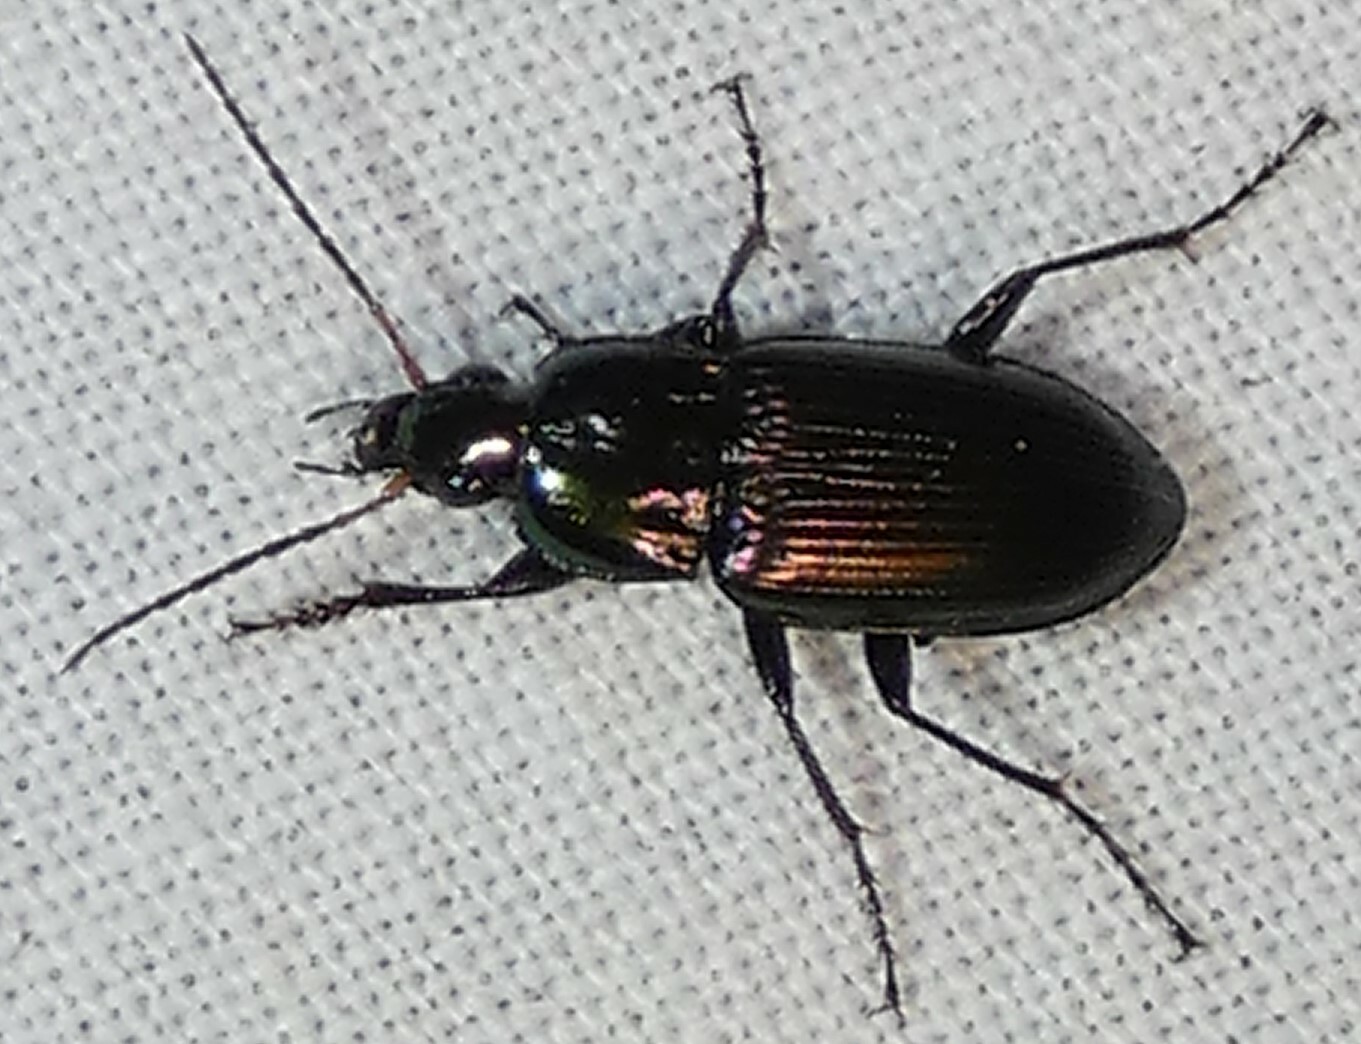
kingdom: Animalia
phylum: Arthropoda
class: Insecta
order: Coleoptera
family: Carabidae
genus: Poecilus
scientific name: Poecilus chalcites
